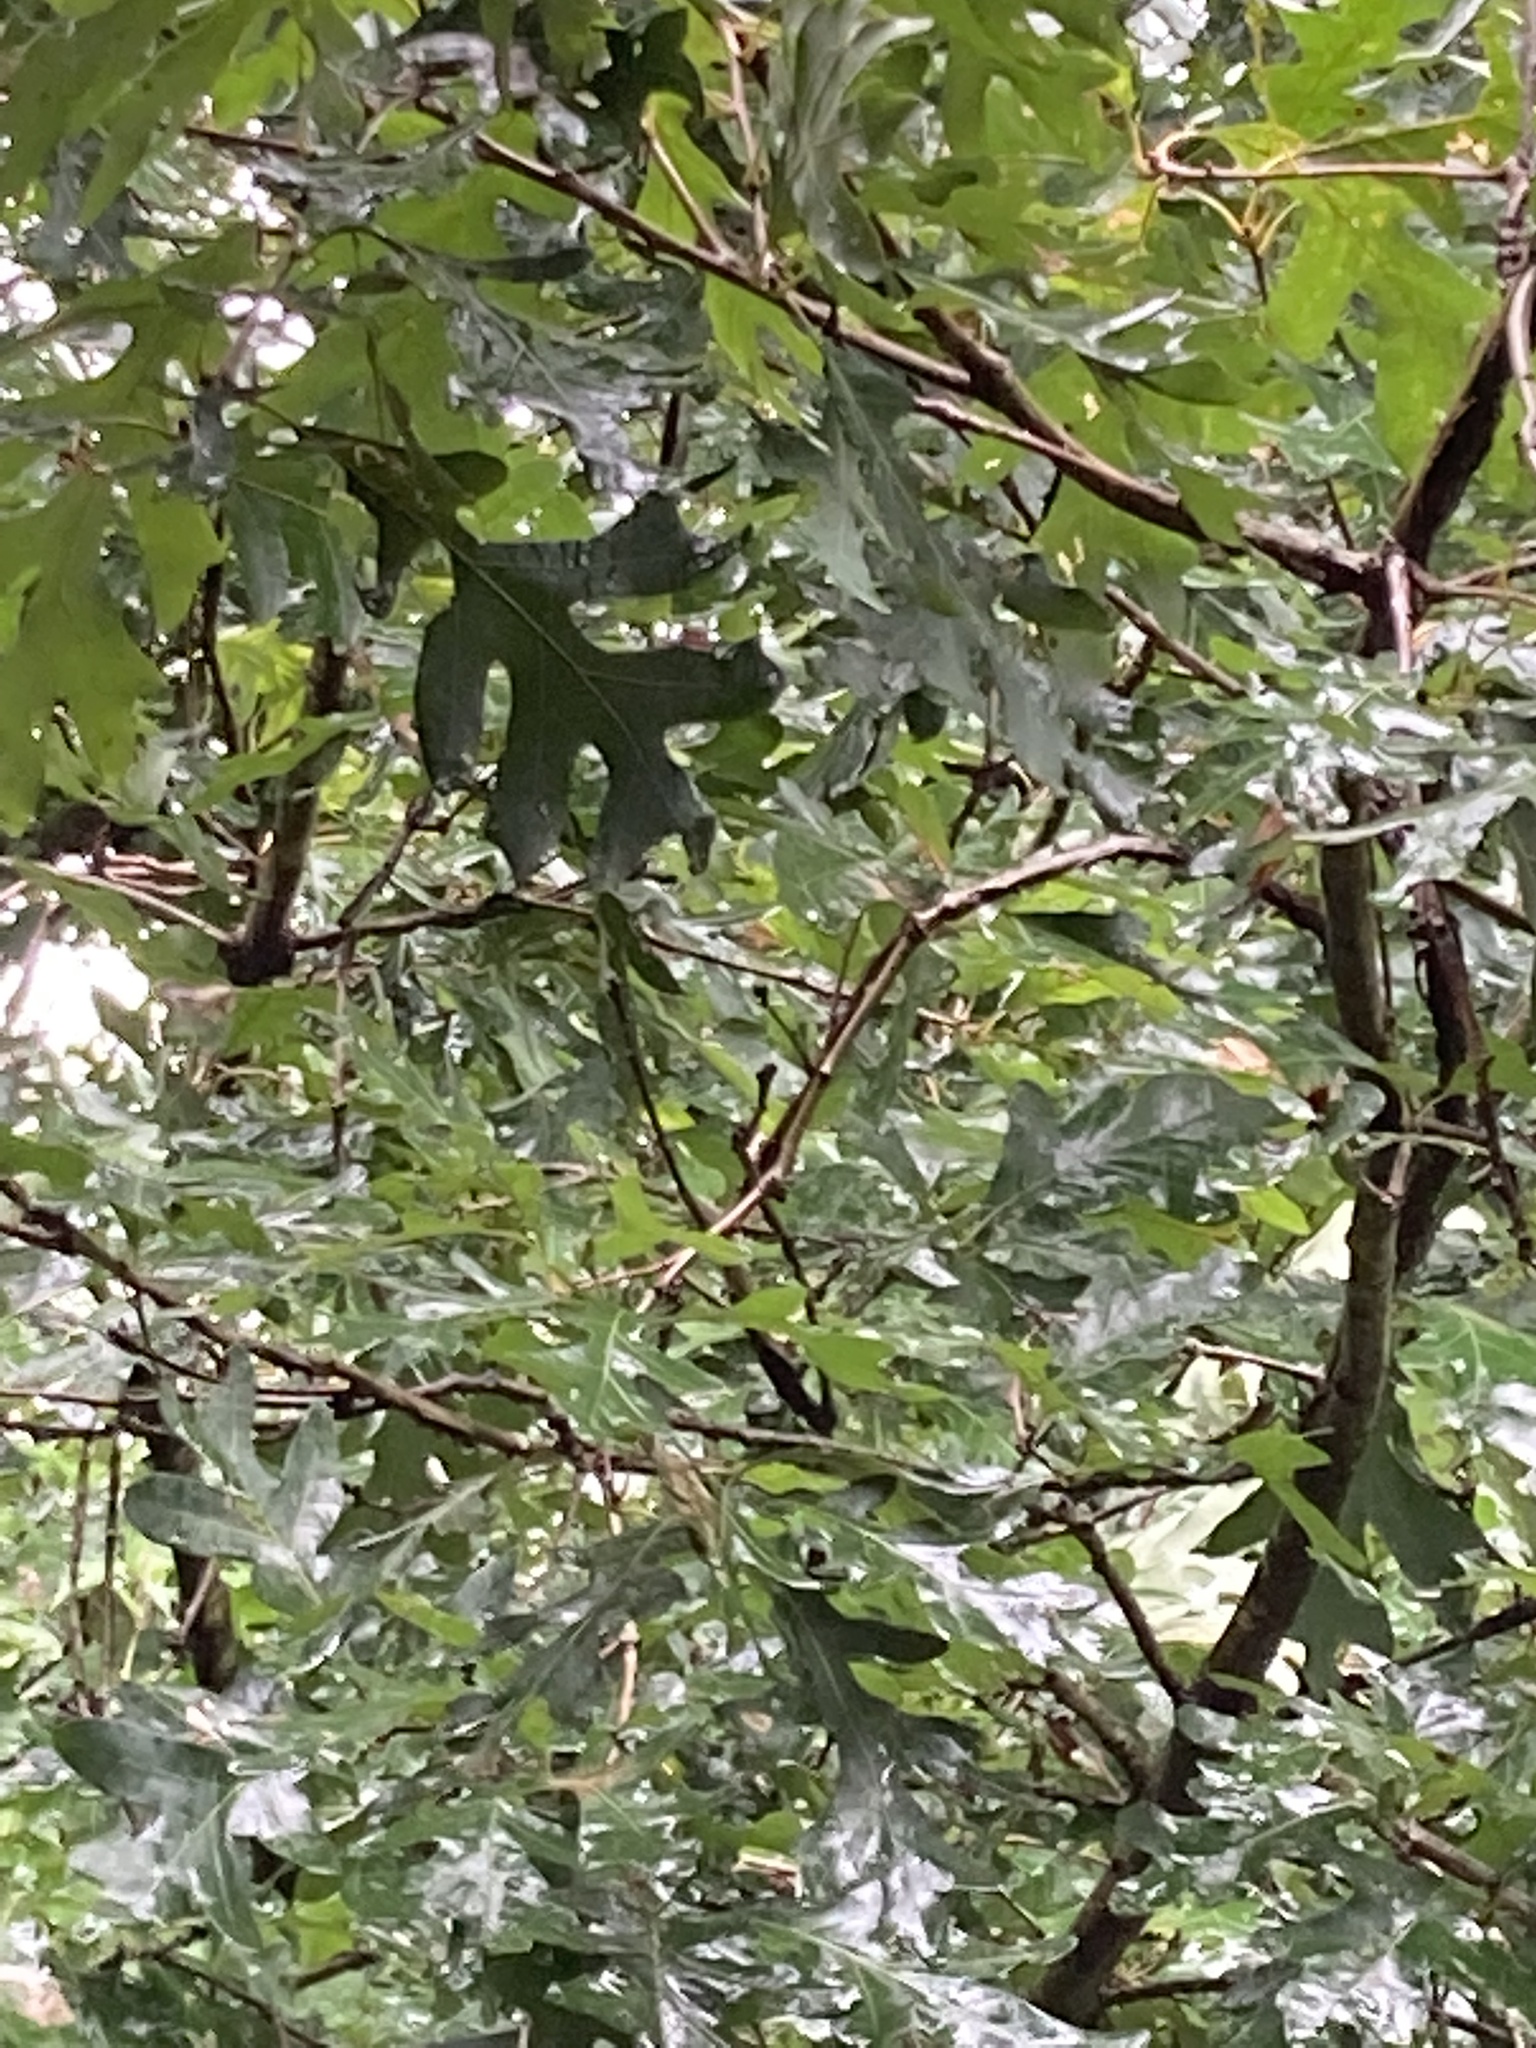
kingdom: Plantae
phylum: Tracheophyta
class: Magnoliopsida
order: Fagales
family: Fagaceae
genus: Quercus
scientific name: Quercus alba
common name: White oak
